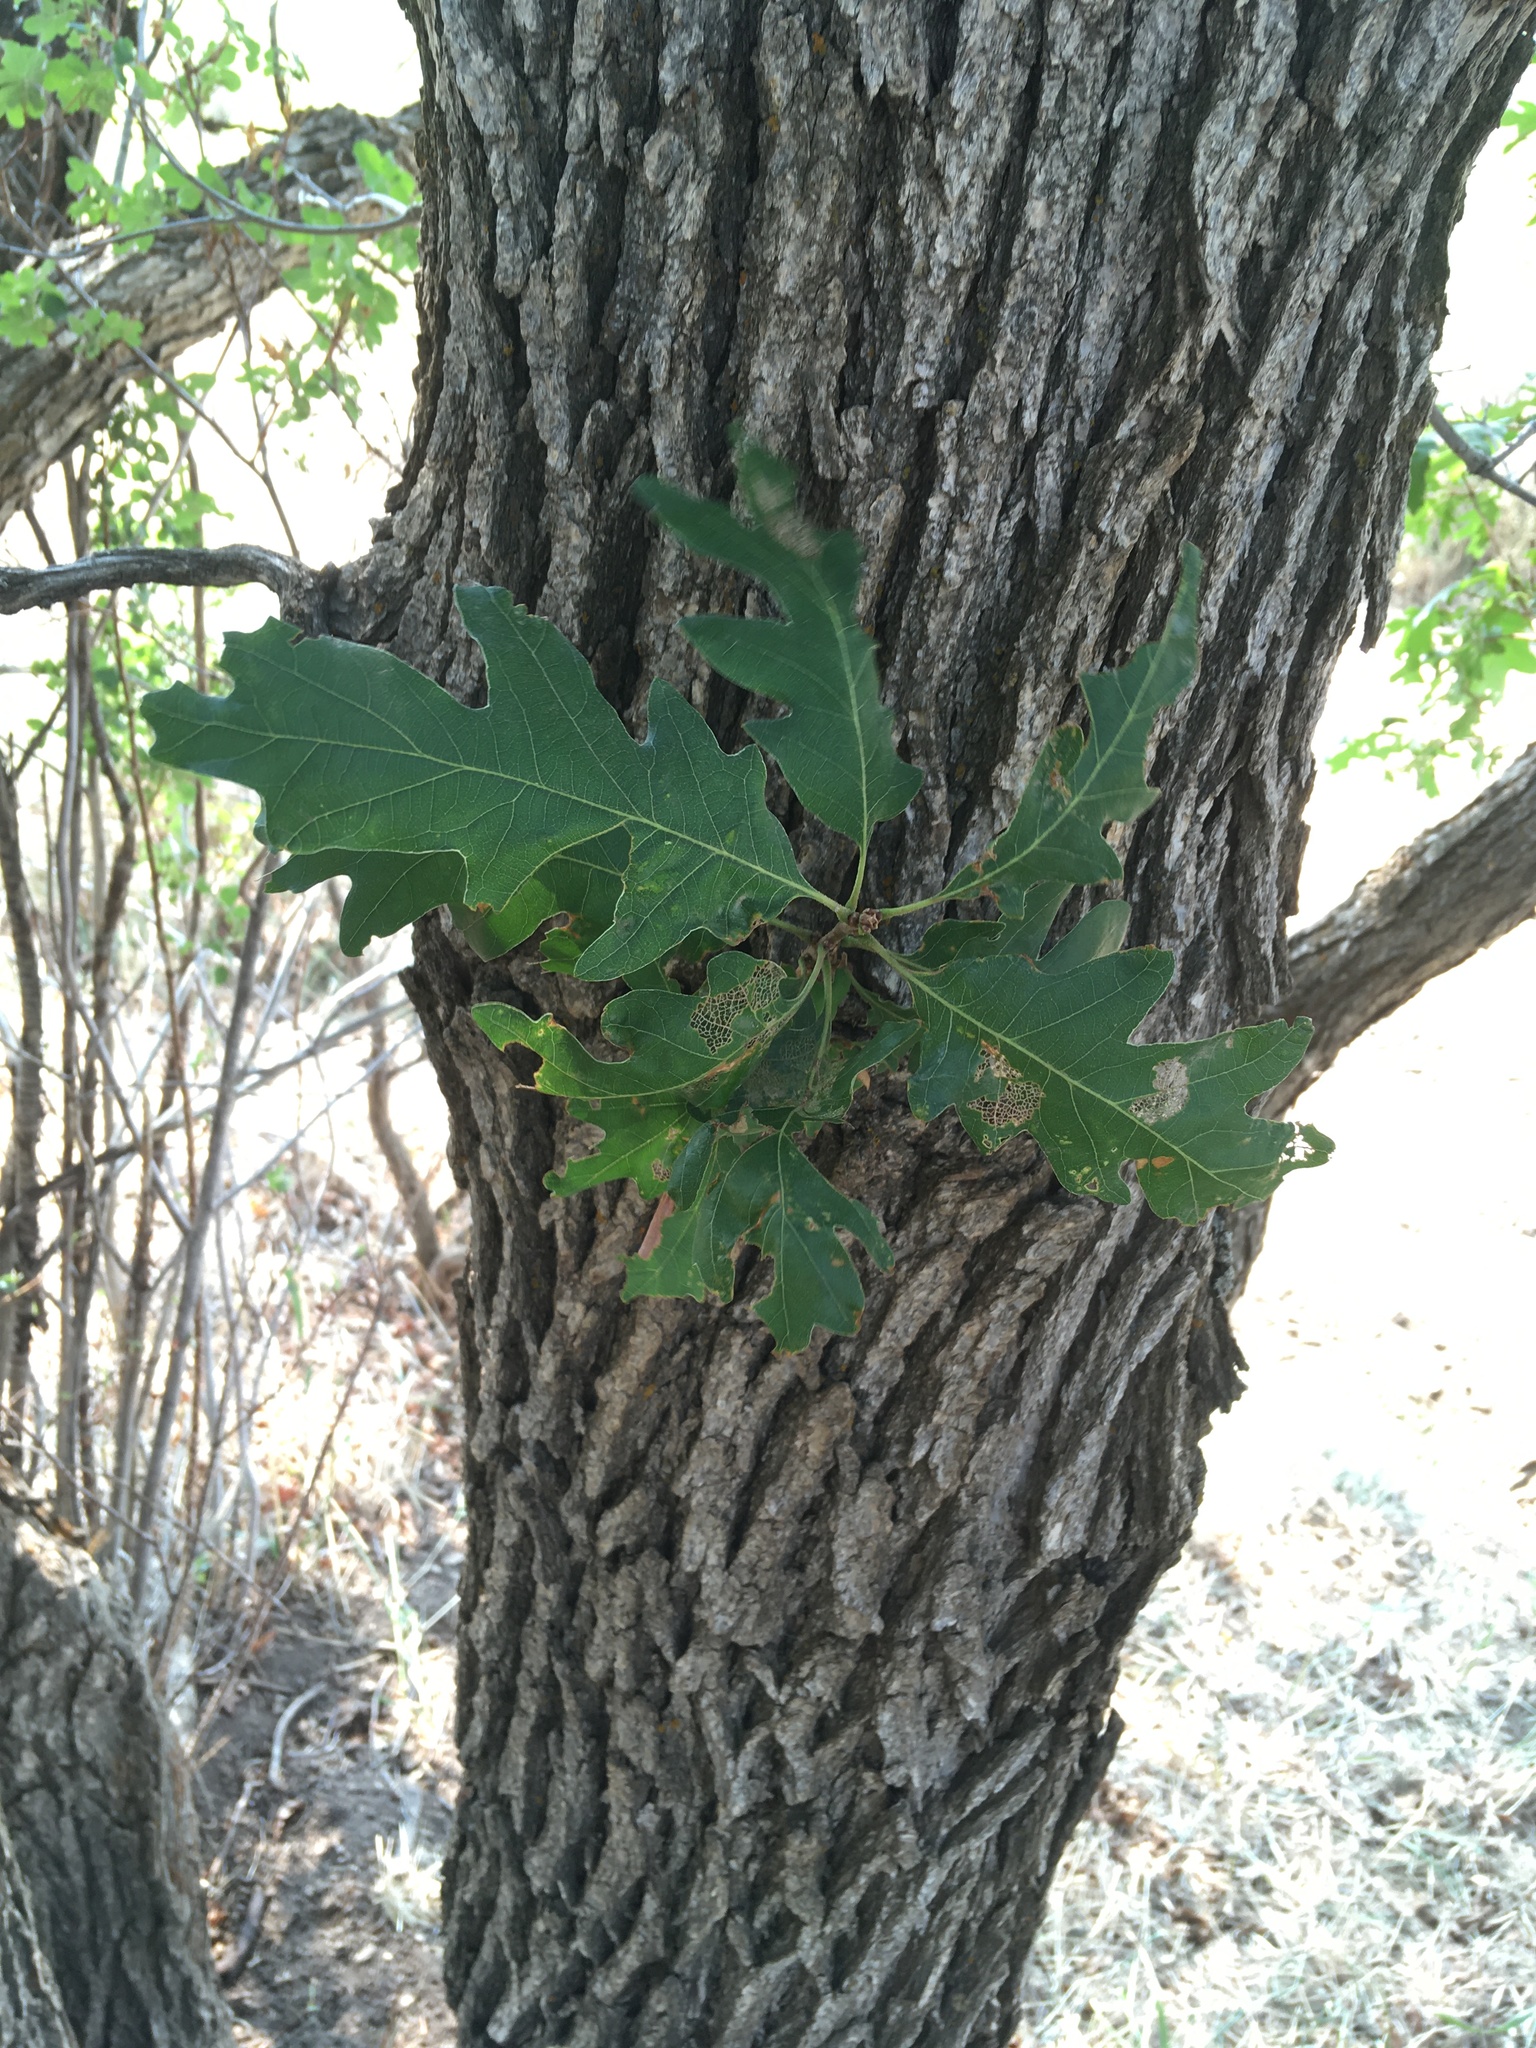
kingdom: Plantae
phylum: Tracheophyta
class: Magnoliopsida
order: Fagales
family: Fagaceae
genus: Quercus
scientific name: Quercus gambelii
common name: Gambel oak
